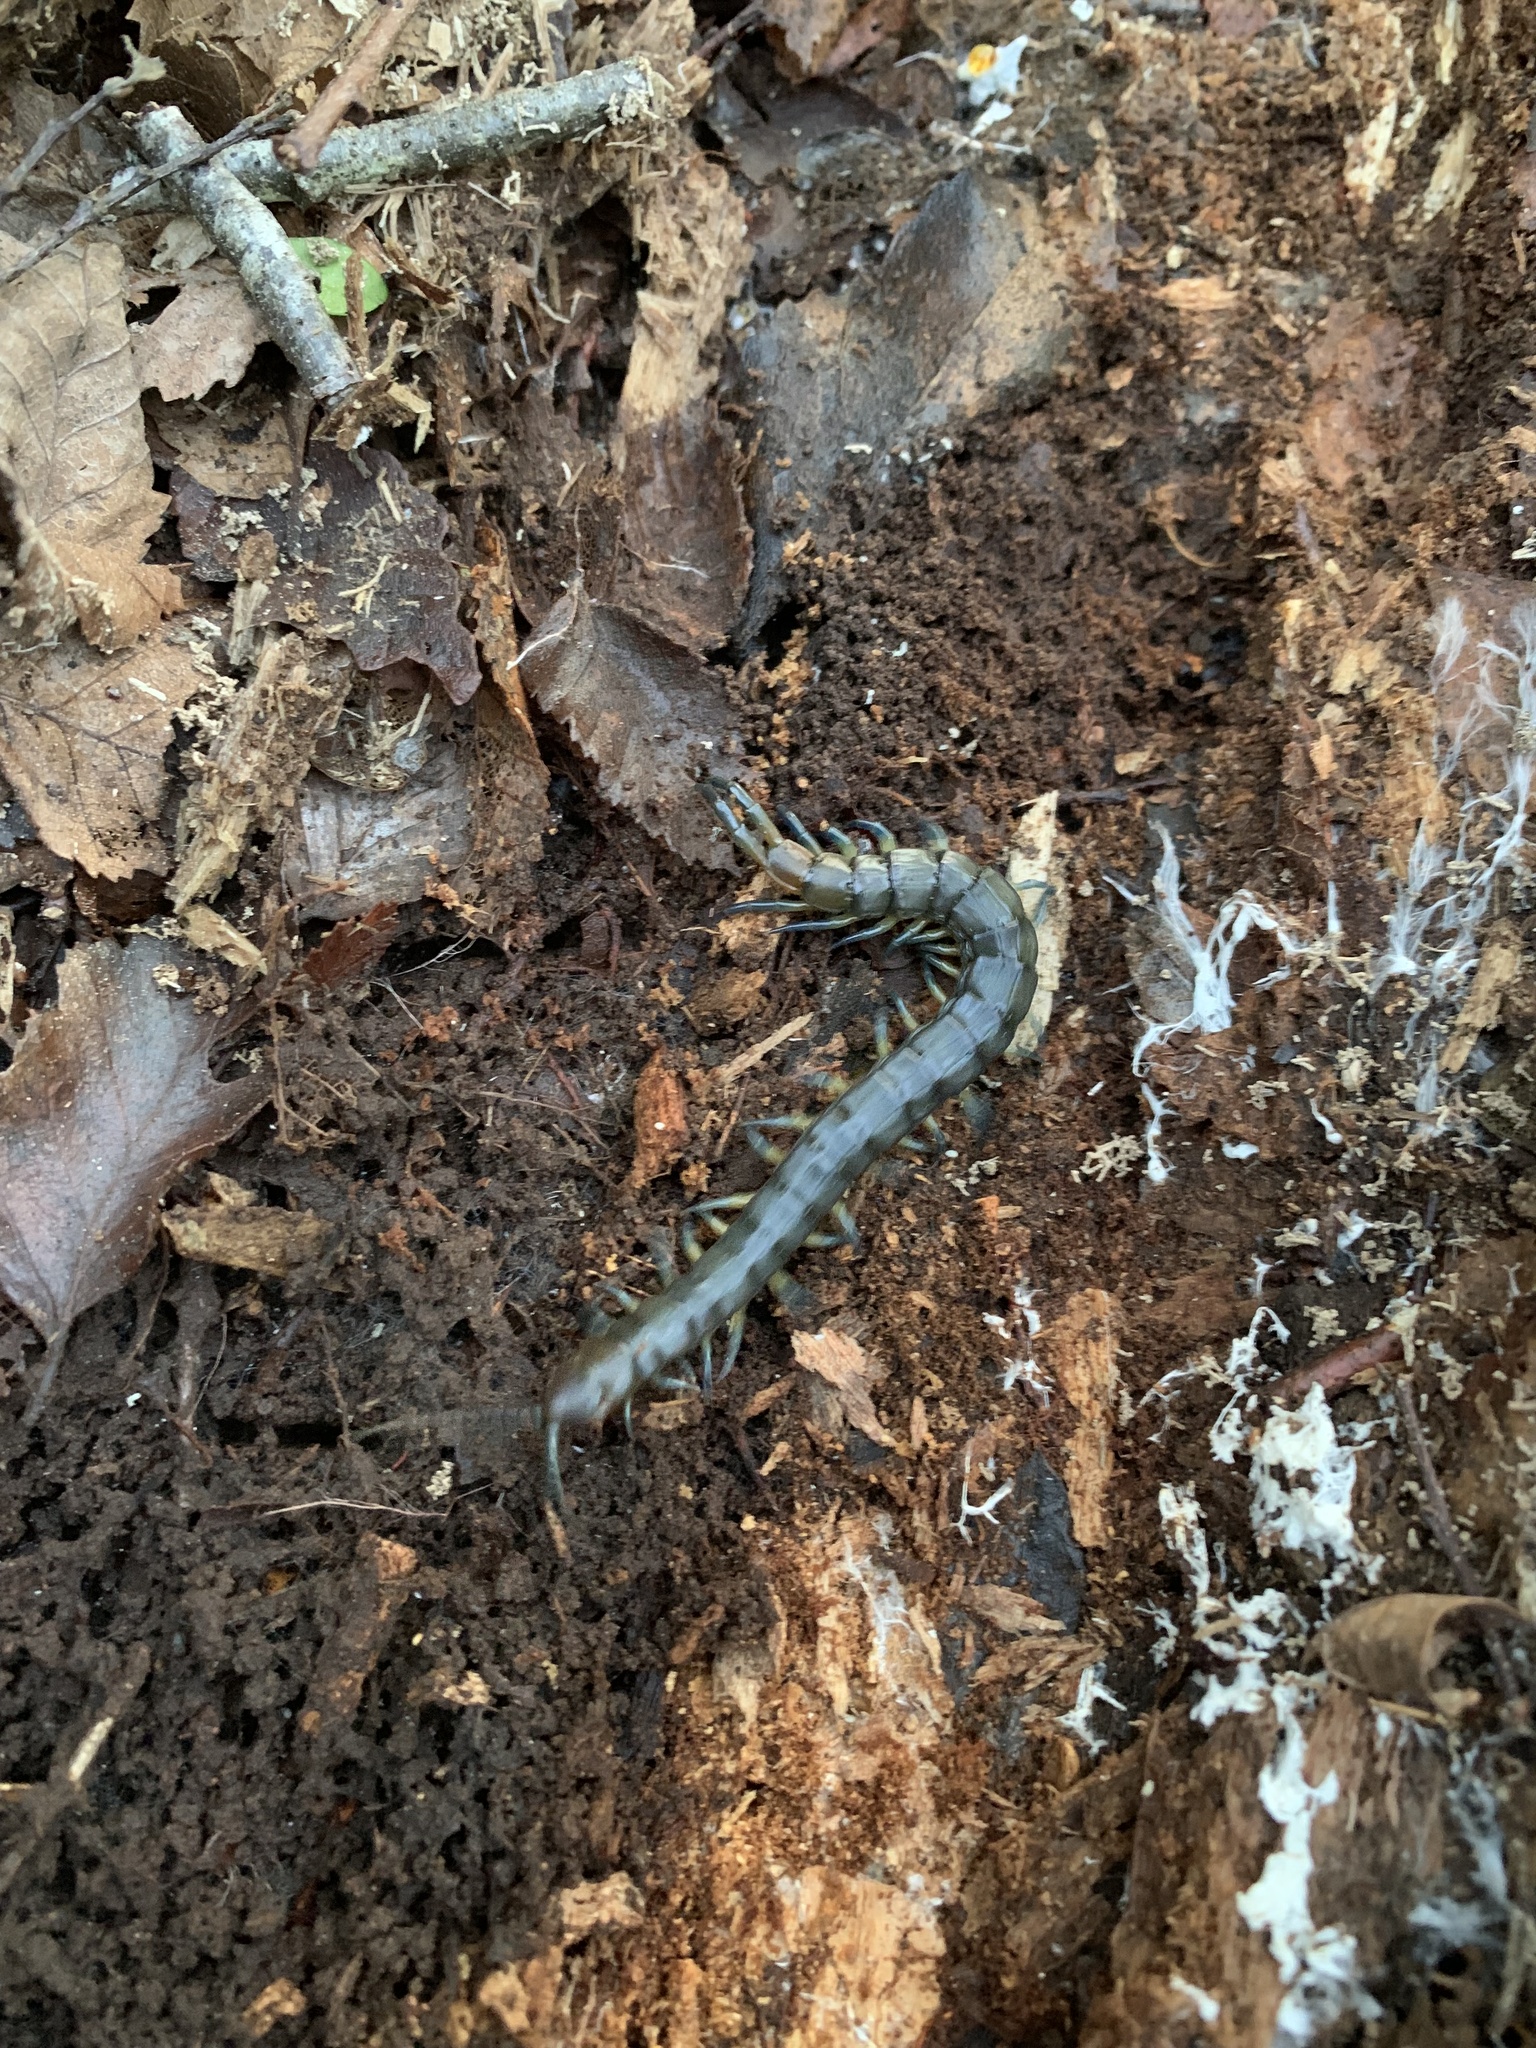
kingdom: Animalia
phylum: Arthropoda
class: Chilopoda
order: Scolopendromorpha
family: Scolopendridae
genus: Hemiscolopendra
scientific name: Hemiscolopendra chilensis
